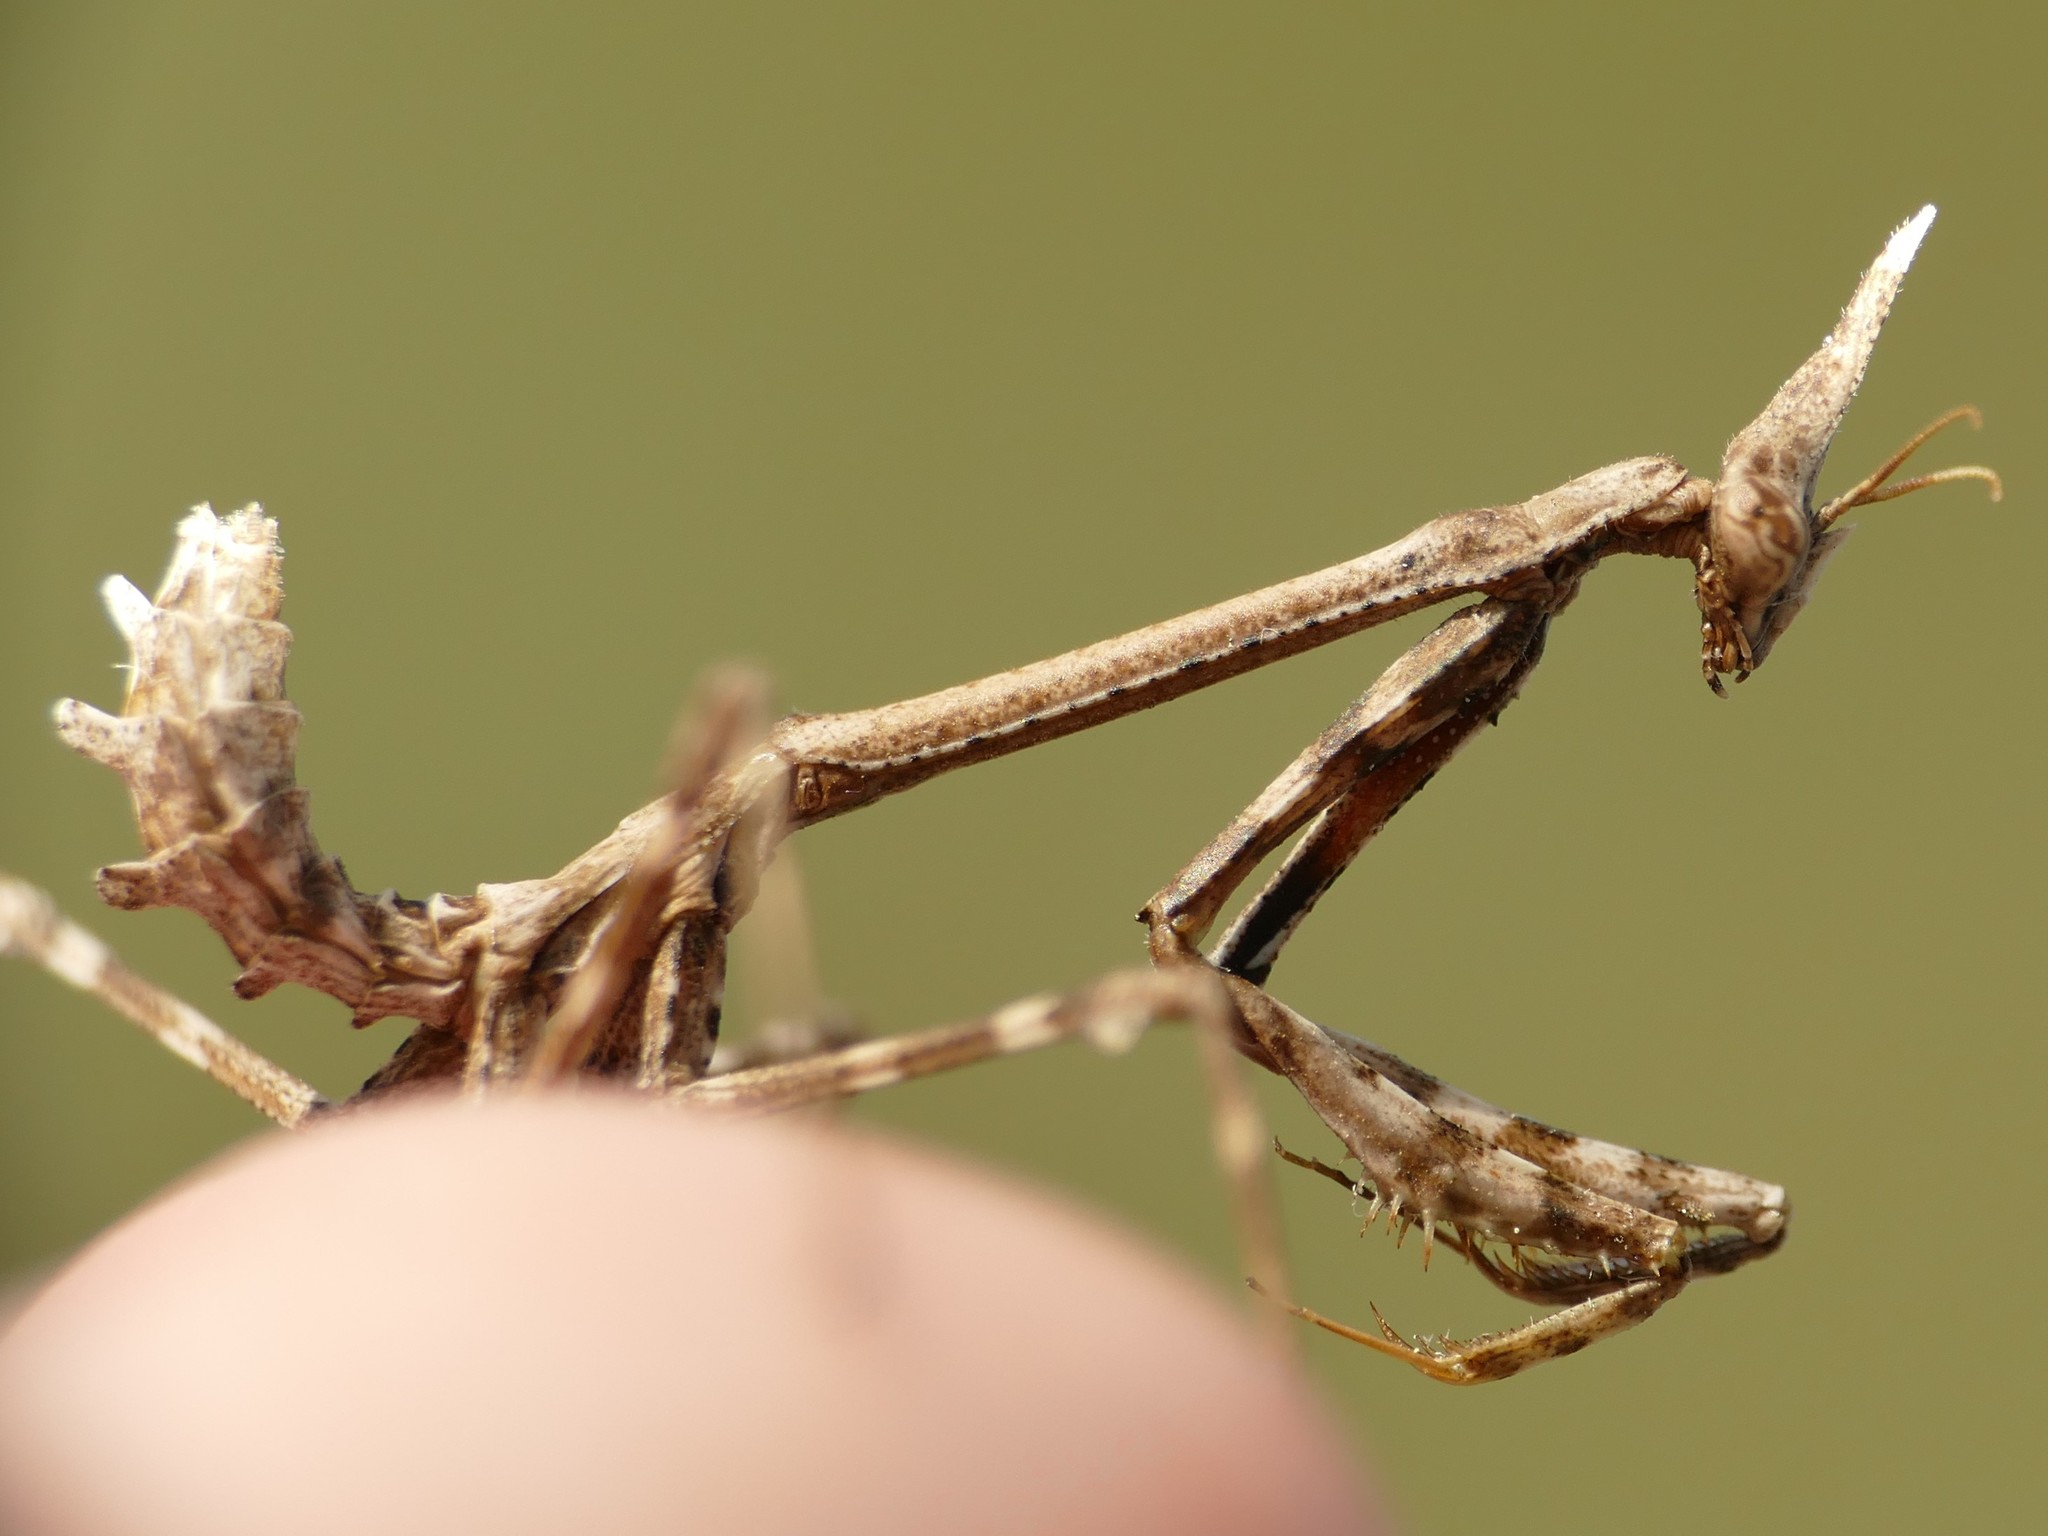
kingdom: Animalia
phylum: Arthropoda
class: Insecta
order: Mantodea
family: Empusidae
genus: Empusa
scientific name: Empusa pennata
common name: Conehead mantis
